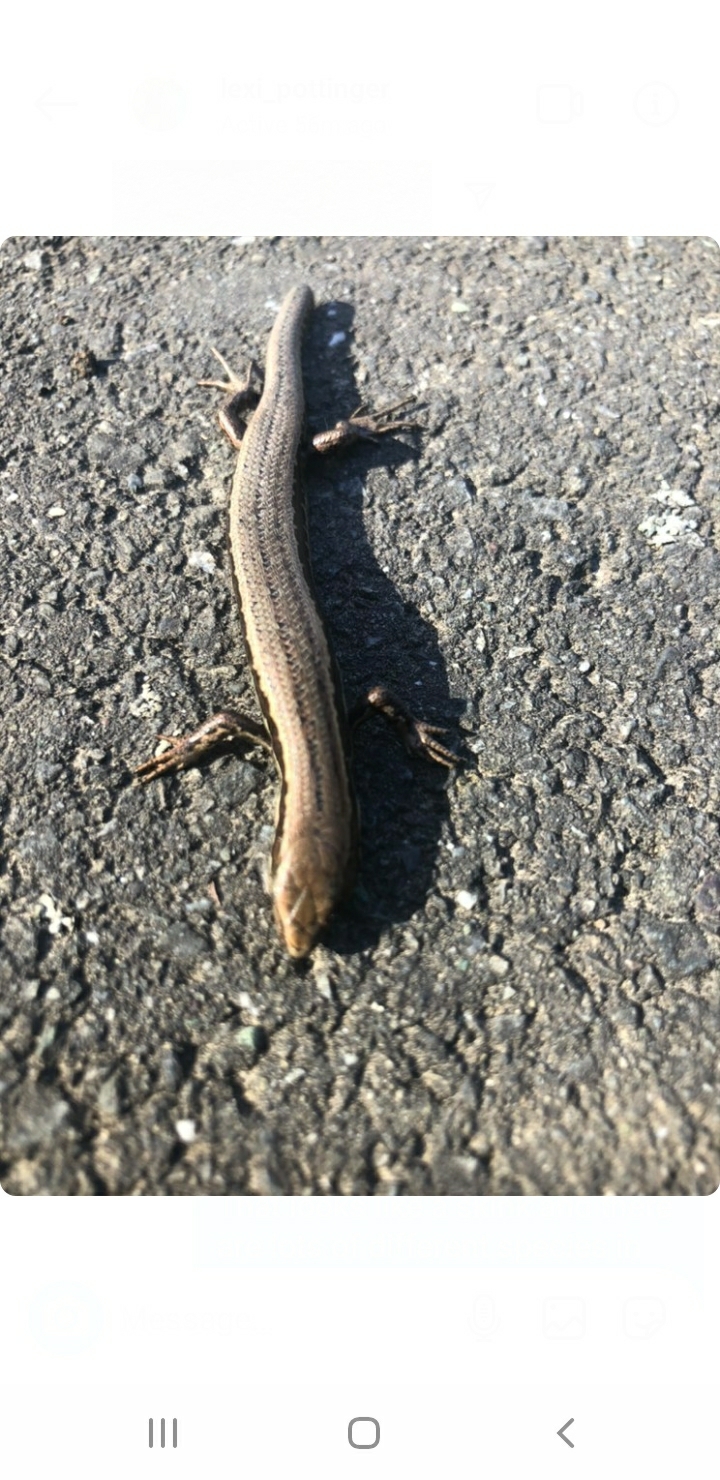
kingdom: Animalia
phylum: Chordata
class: Squamata
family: Scincidae
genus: Oligosoma
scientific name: Oligosoma polychroma
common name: Common new zealand skink
